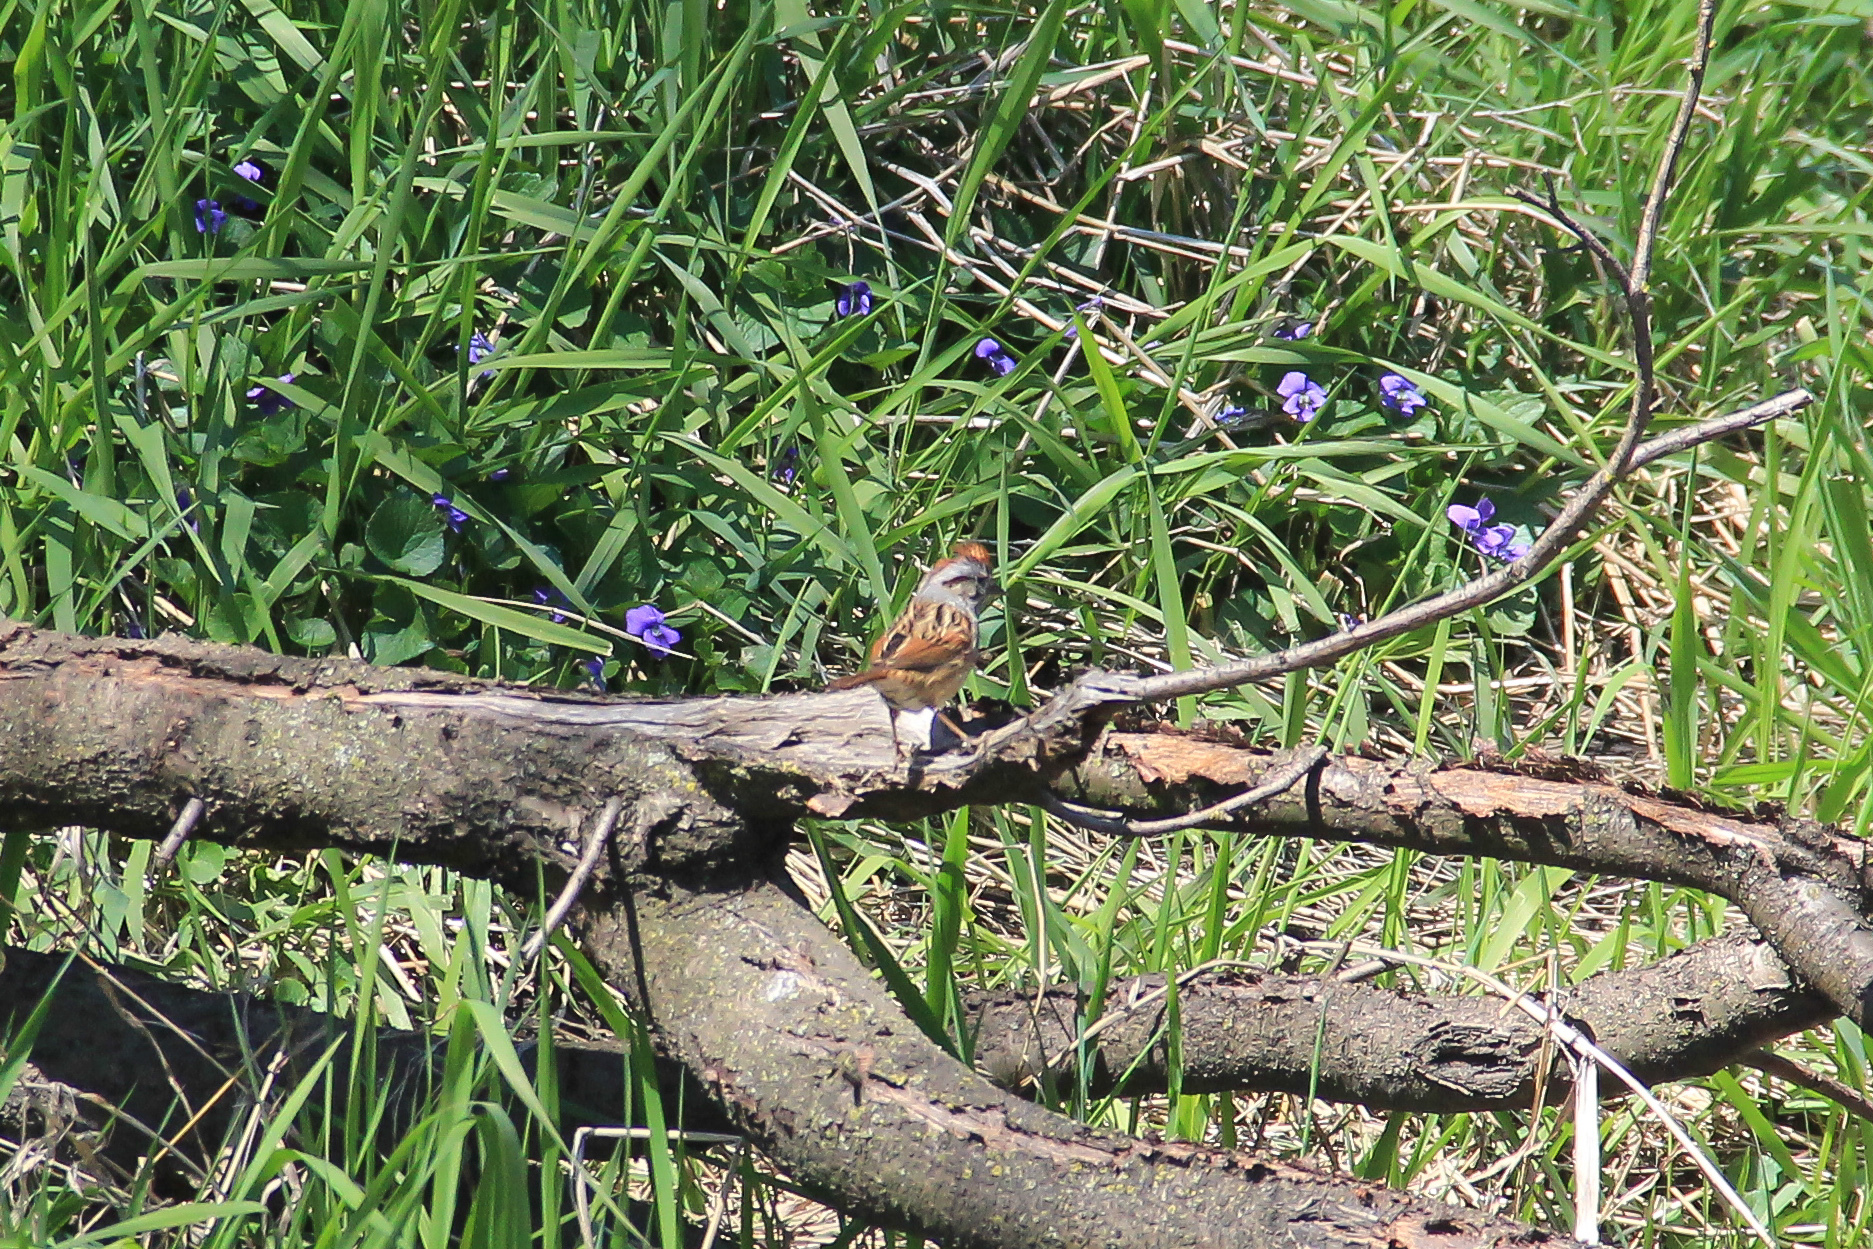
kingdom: Animalia
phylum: Chordata
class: Aves
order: Passeriformes
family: Passerellidae
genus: Melospiza
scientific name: Melospiza georgiana
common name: Swamp sparrow
